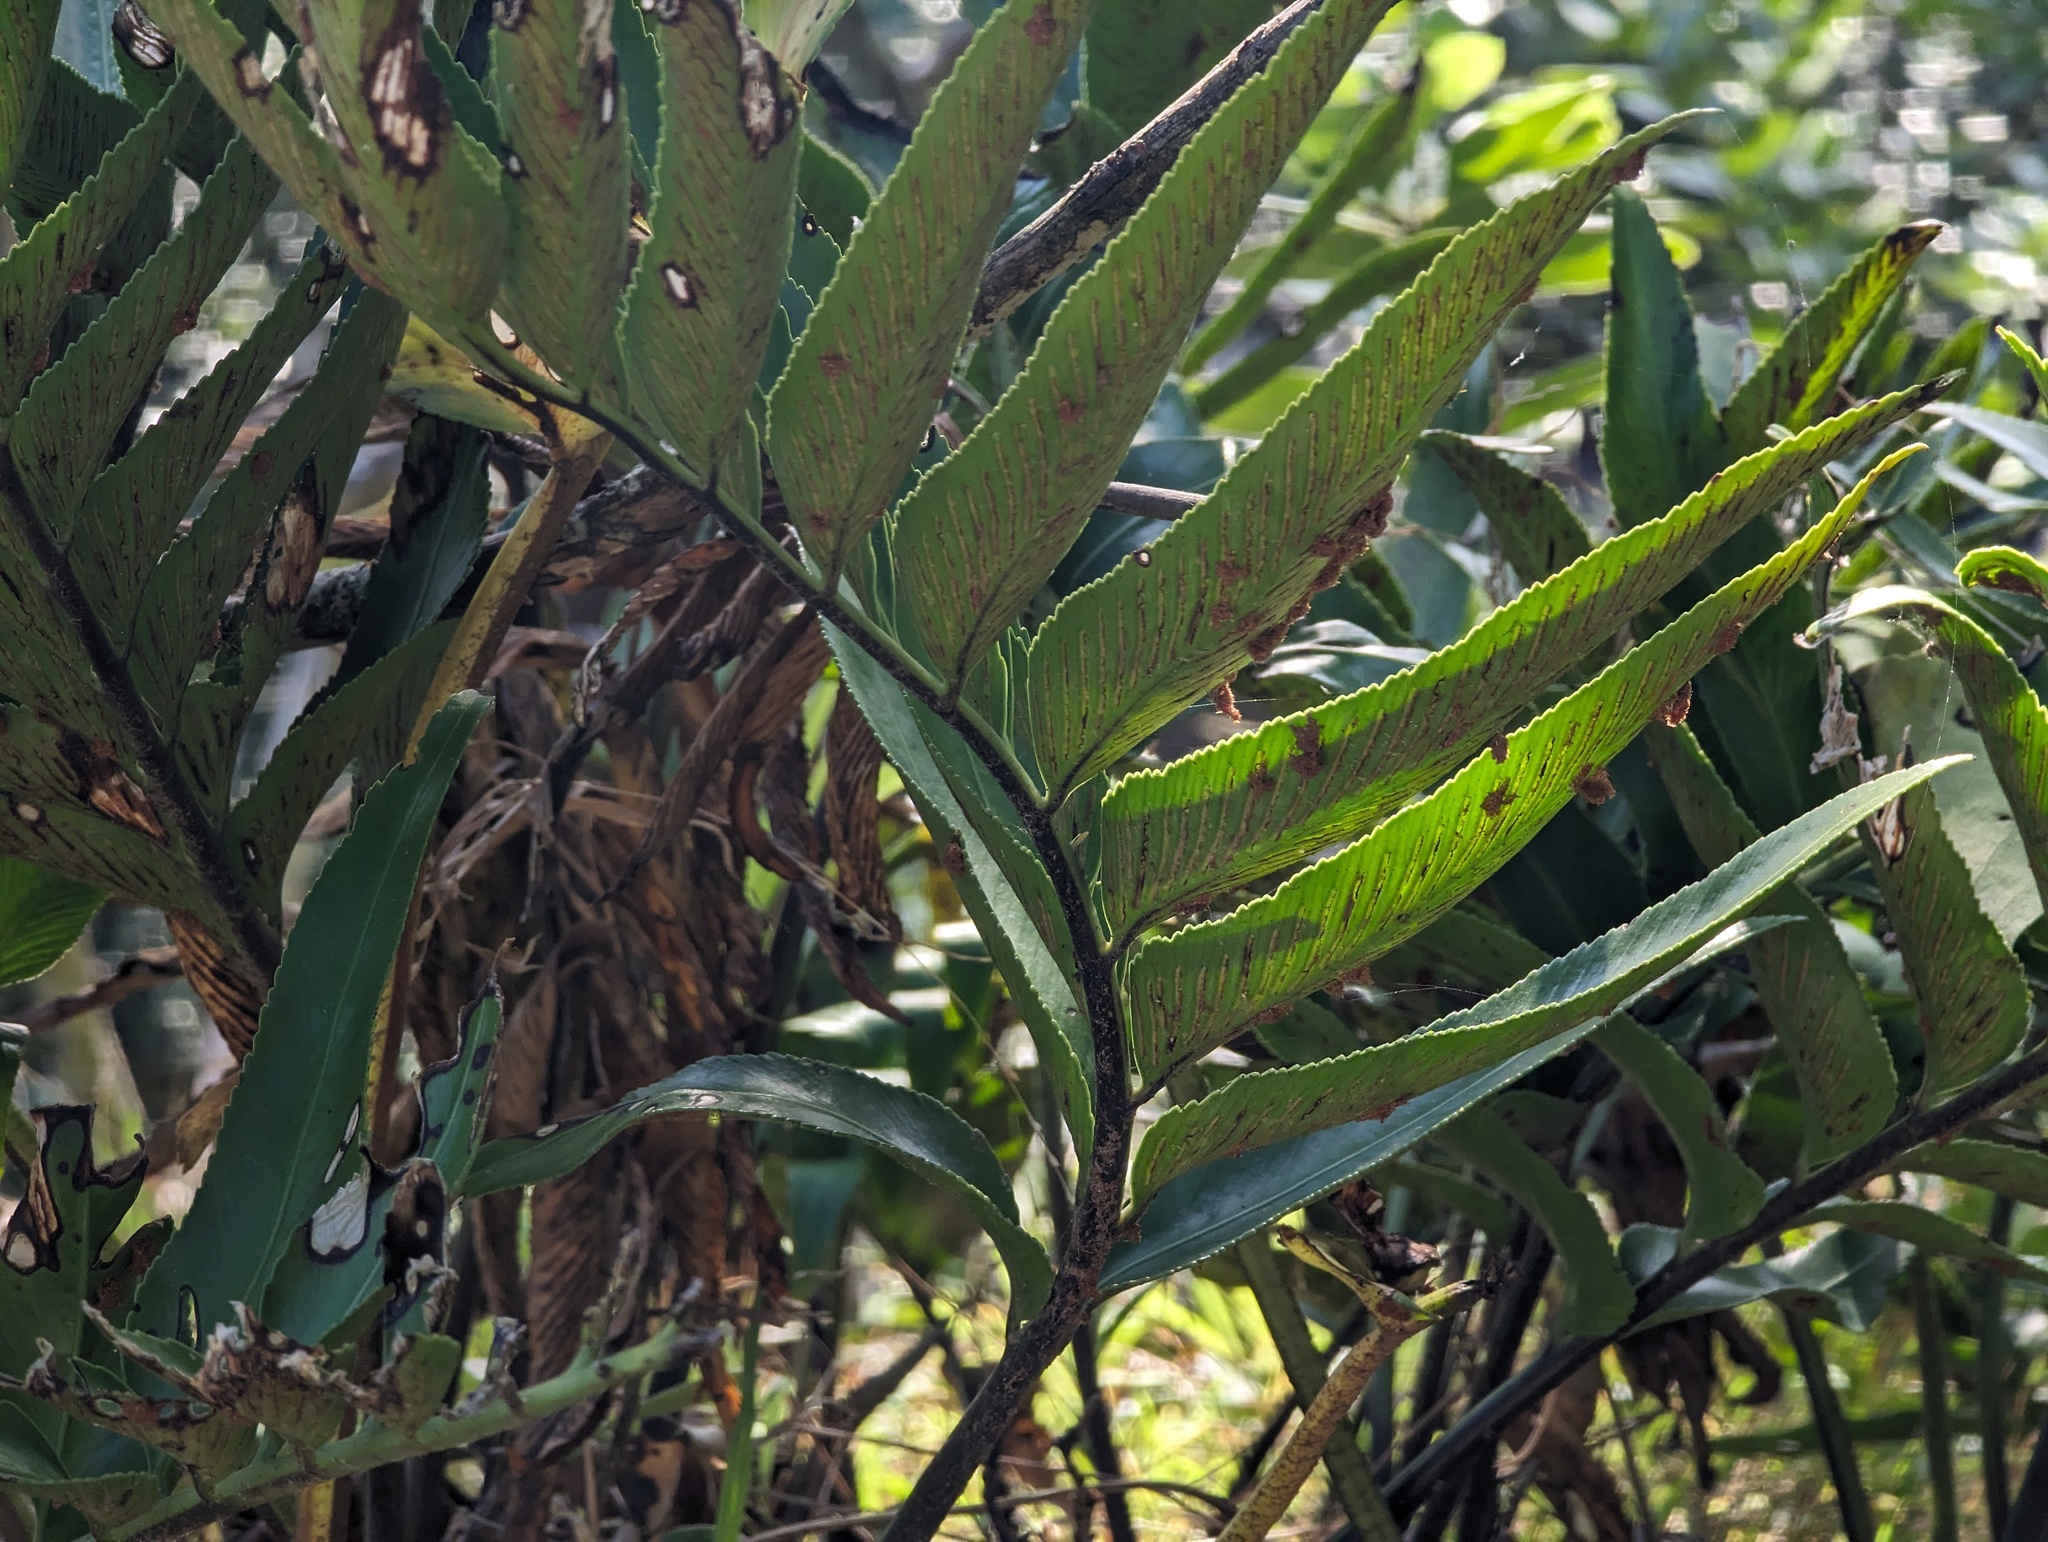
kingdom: Plantae
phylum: Tracheophyta
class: Polypodiopsida
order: Polypodiales
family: Aspleniaceae
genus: Asplenium
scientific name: Asplenium oblongifolium
